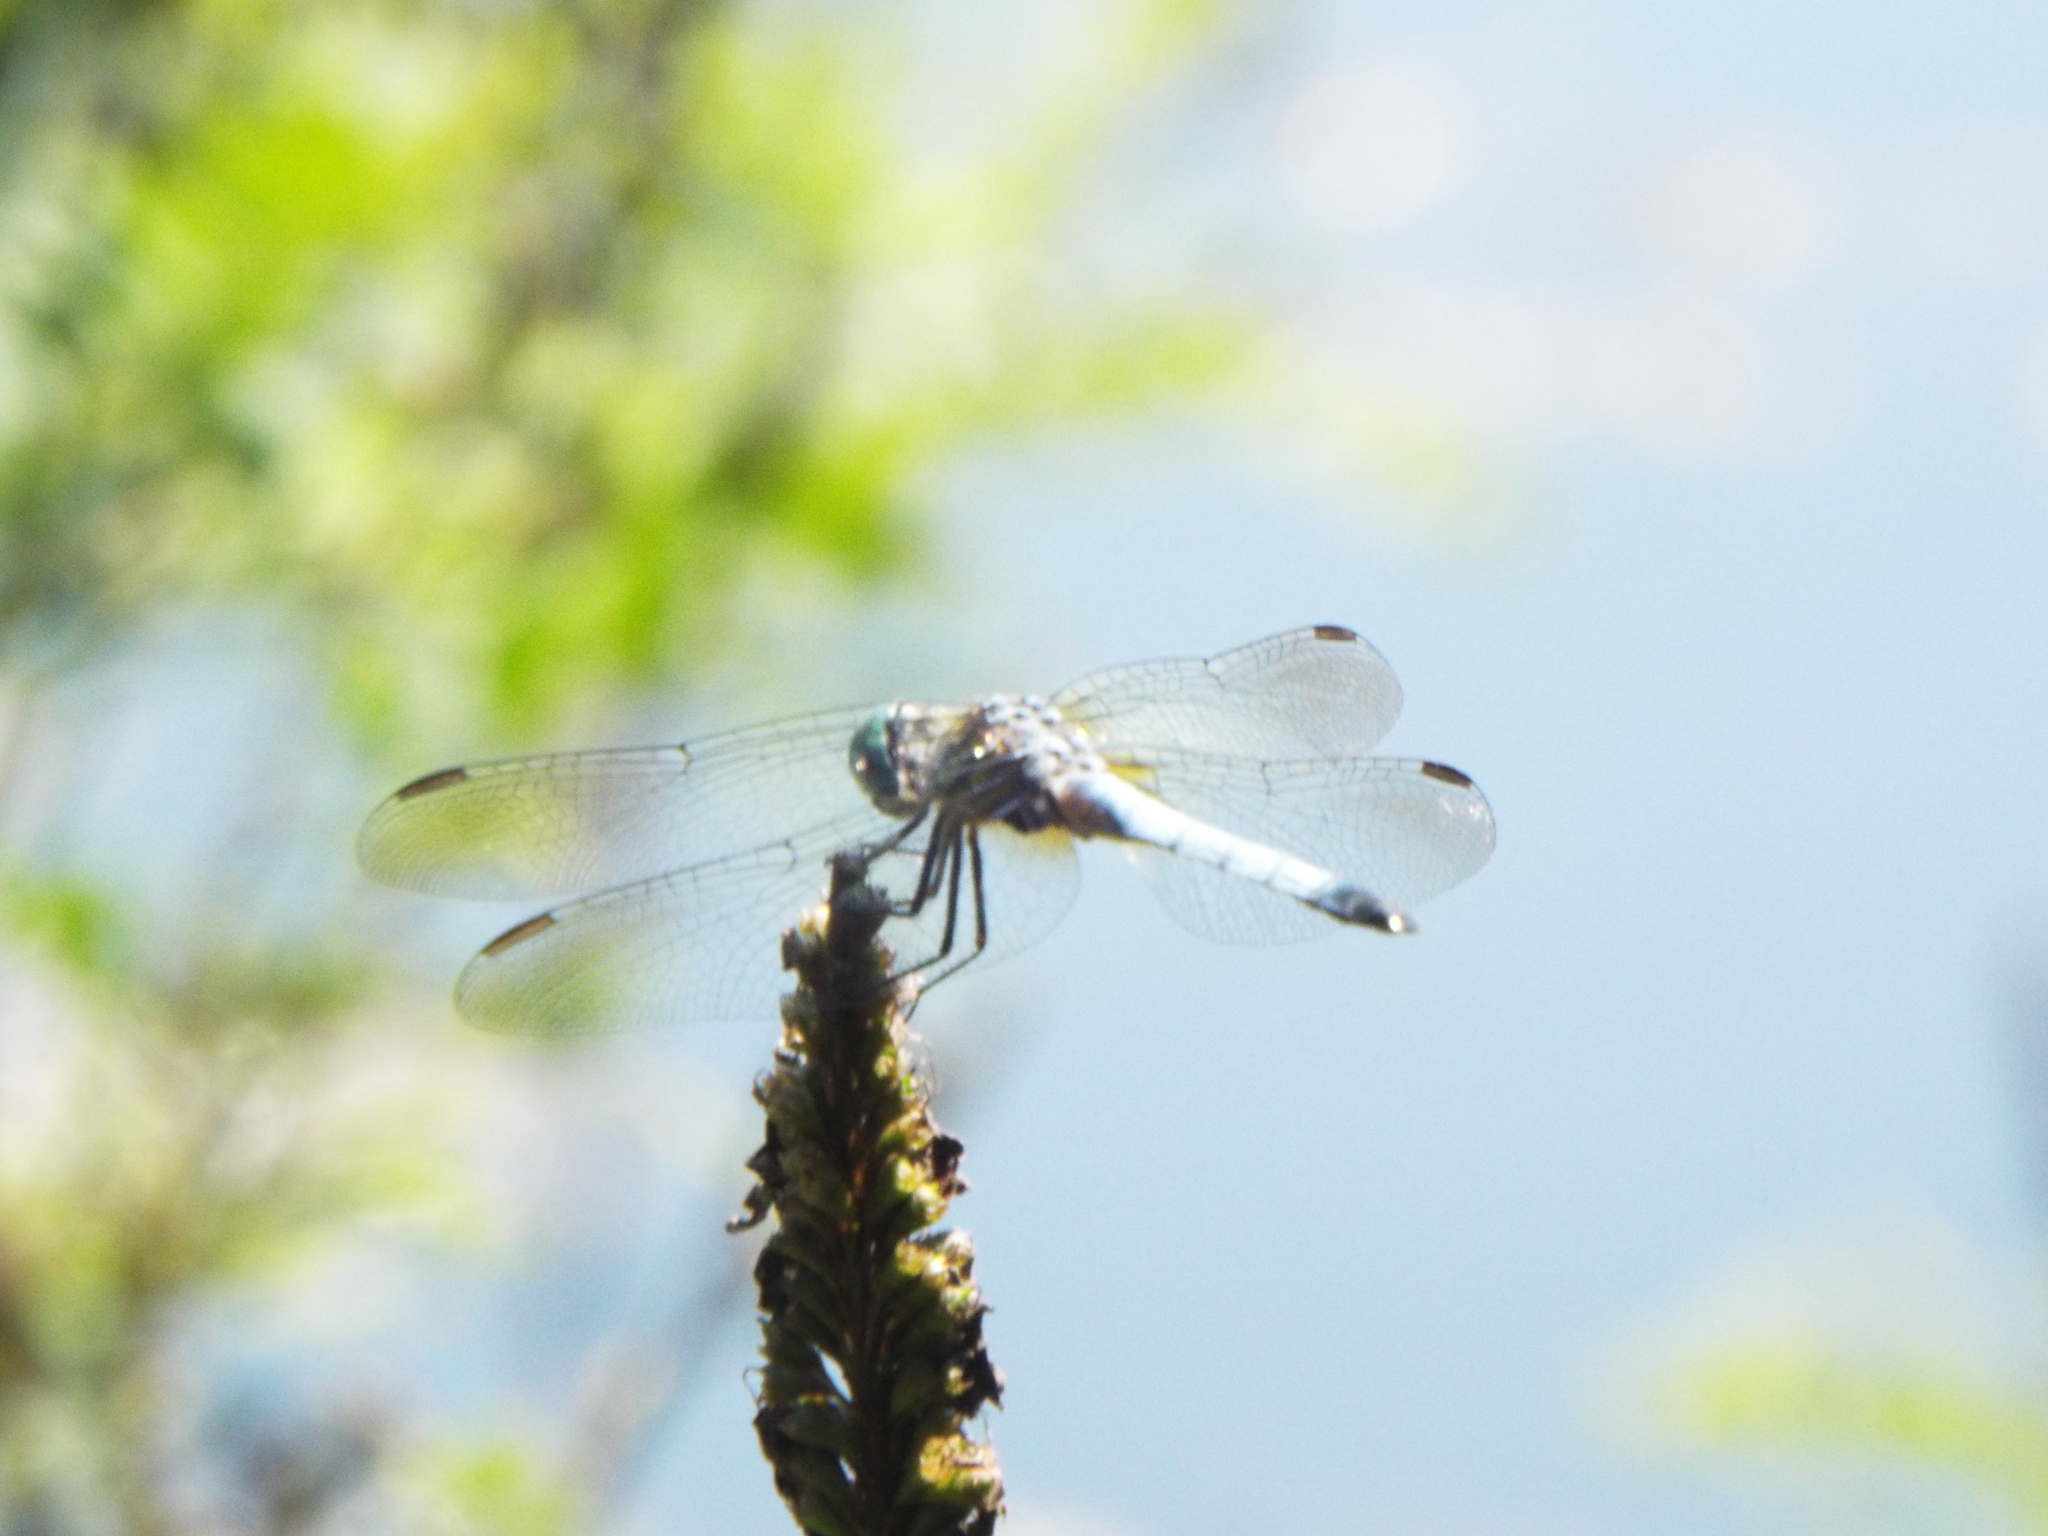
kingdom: Animalia
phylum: Arthropoda
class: Insecta
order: Odonata
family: Libellulidae
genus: Pachydiplax
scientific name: Pachydiplax longipennis
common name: Blue dasher
